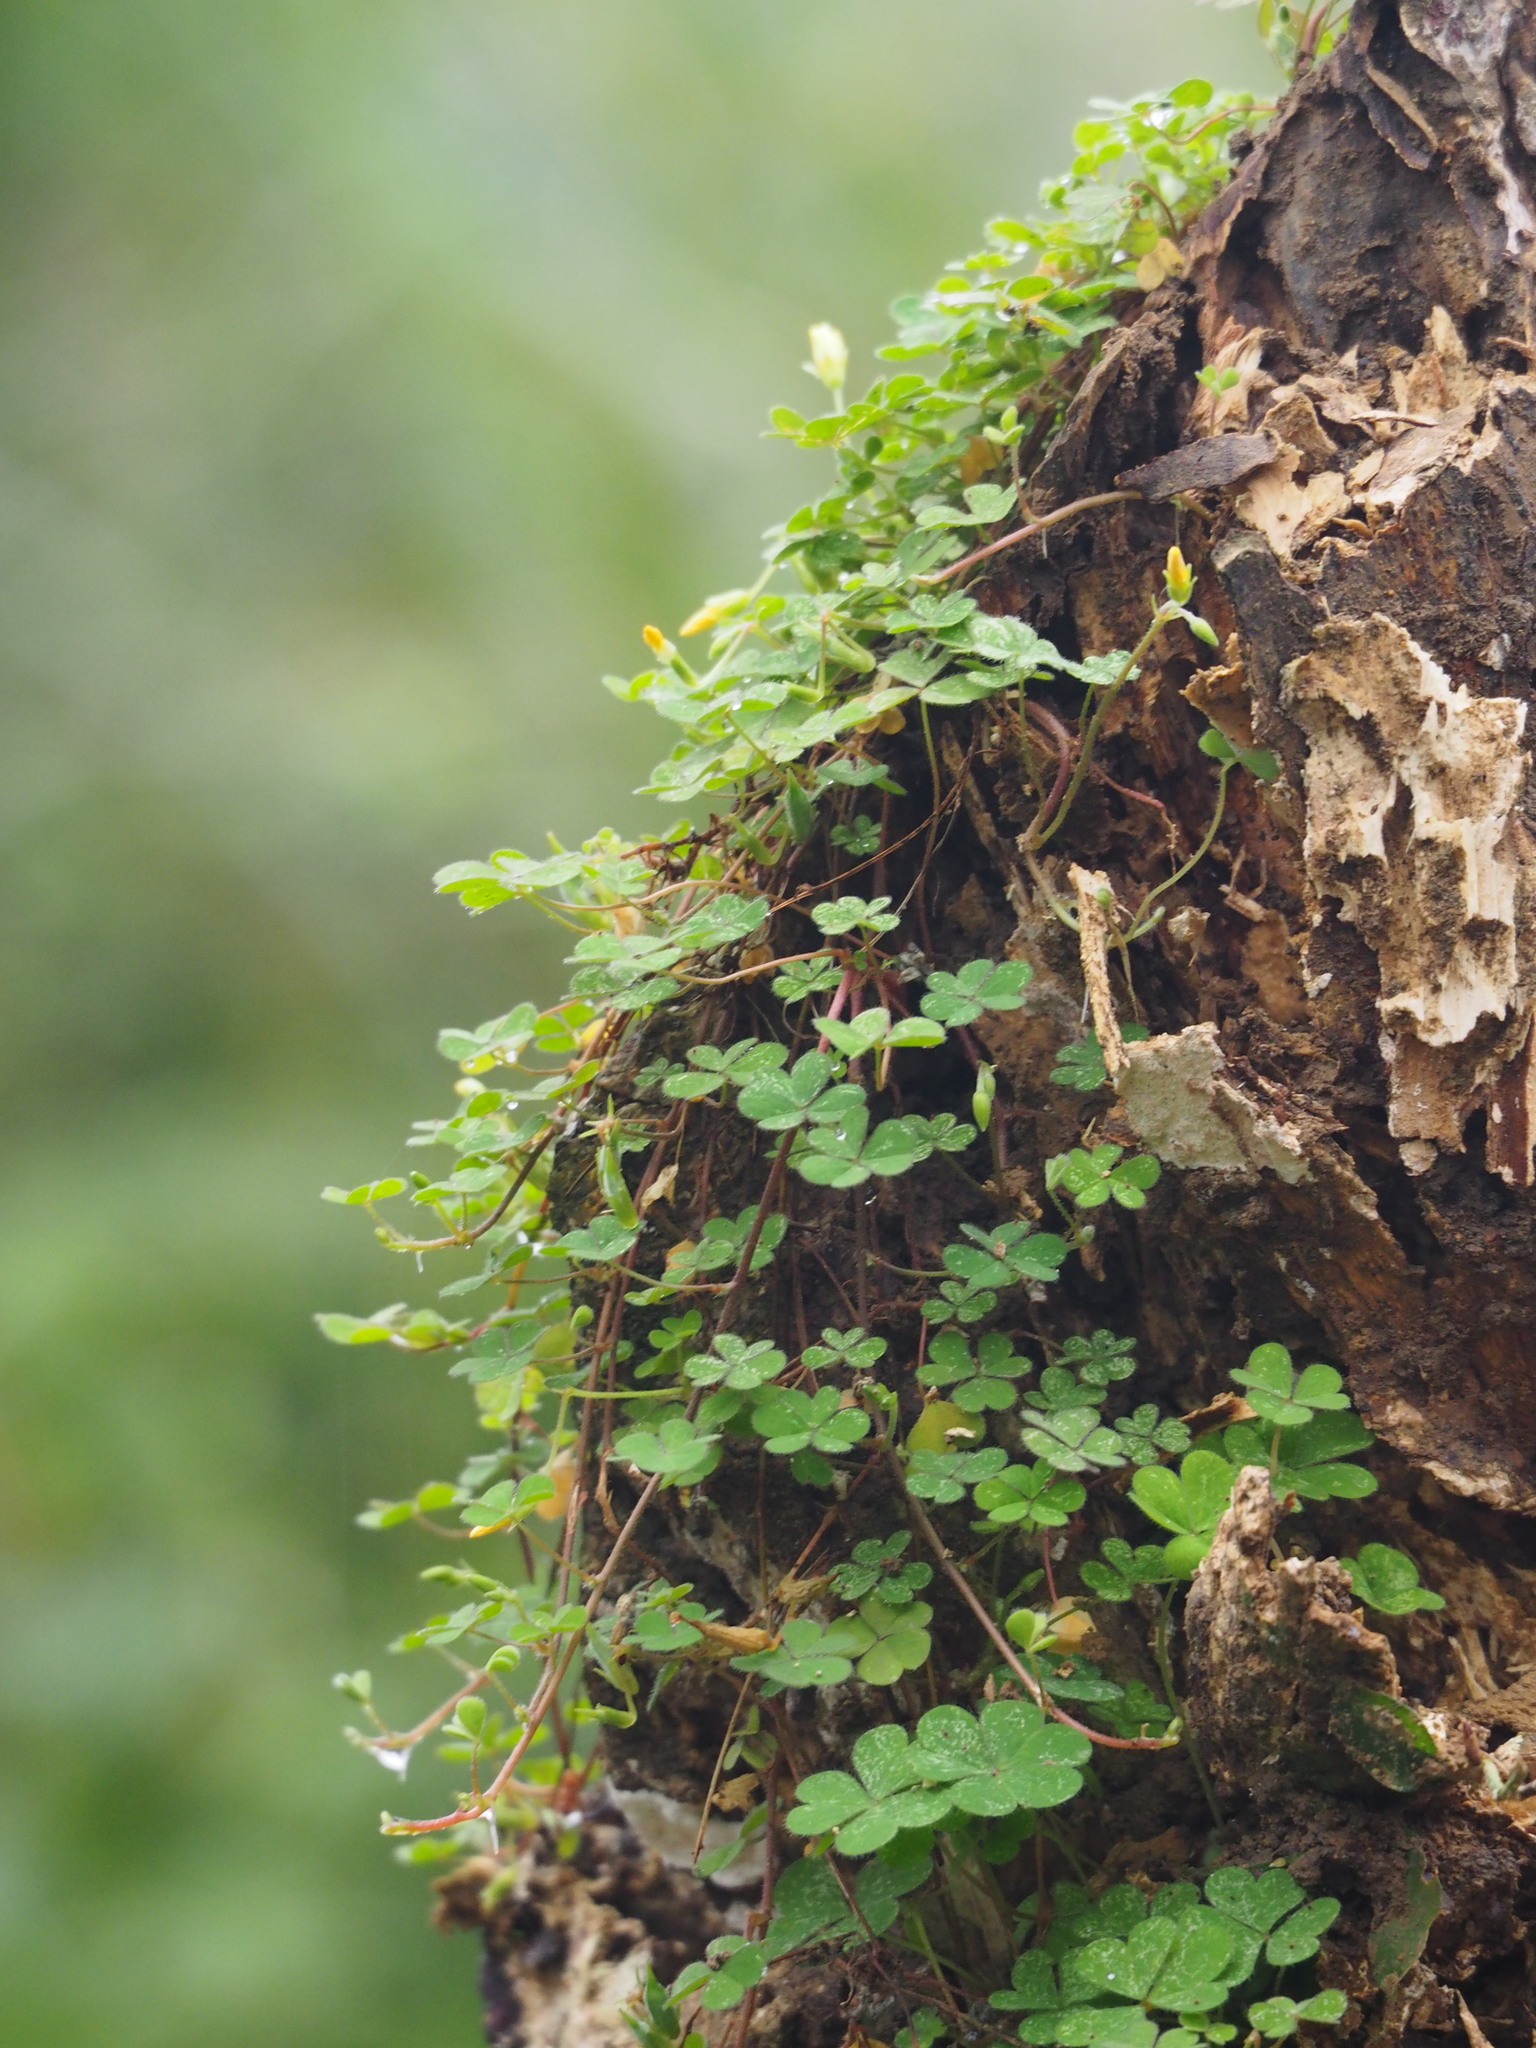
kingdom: Plantae
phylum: Tracheophyta
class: Magnoliopsida
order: Oxalidales
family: Oxalidaceae
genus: Oxalis
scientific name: Oxalis corniculata
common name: Procumbent yellow-sorrel
